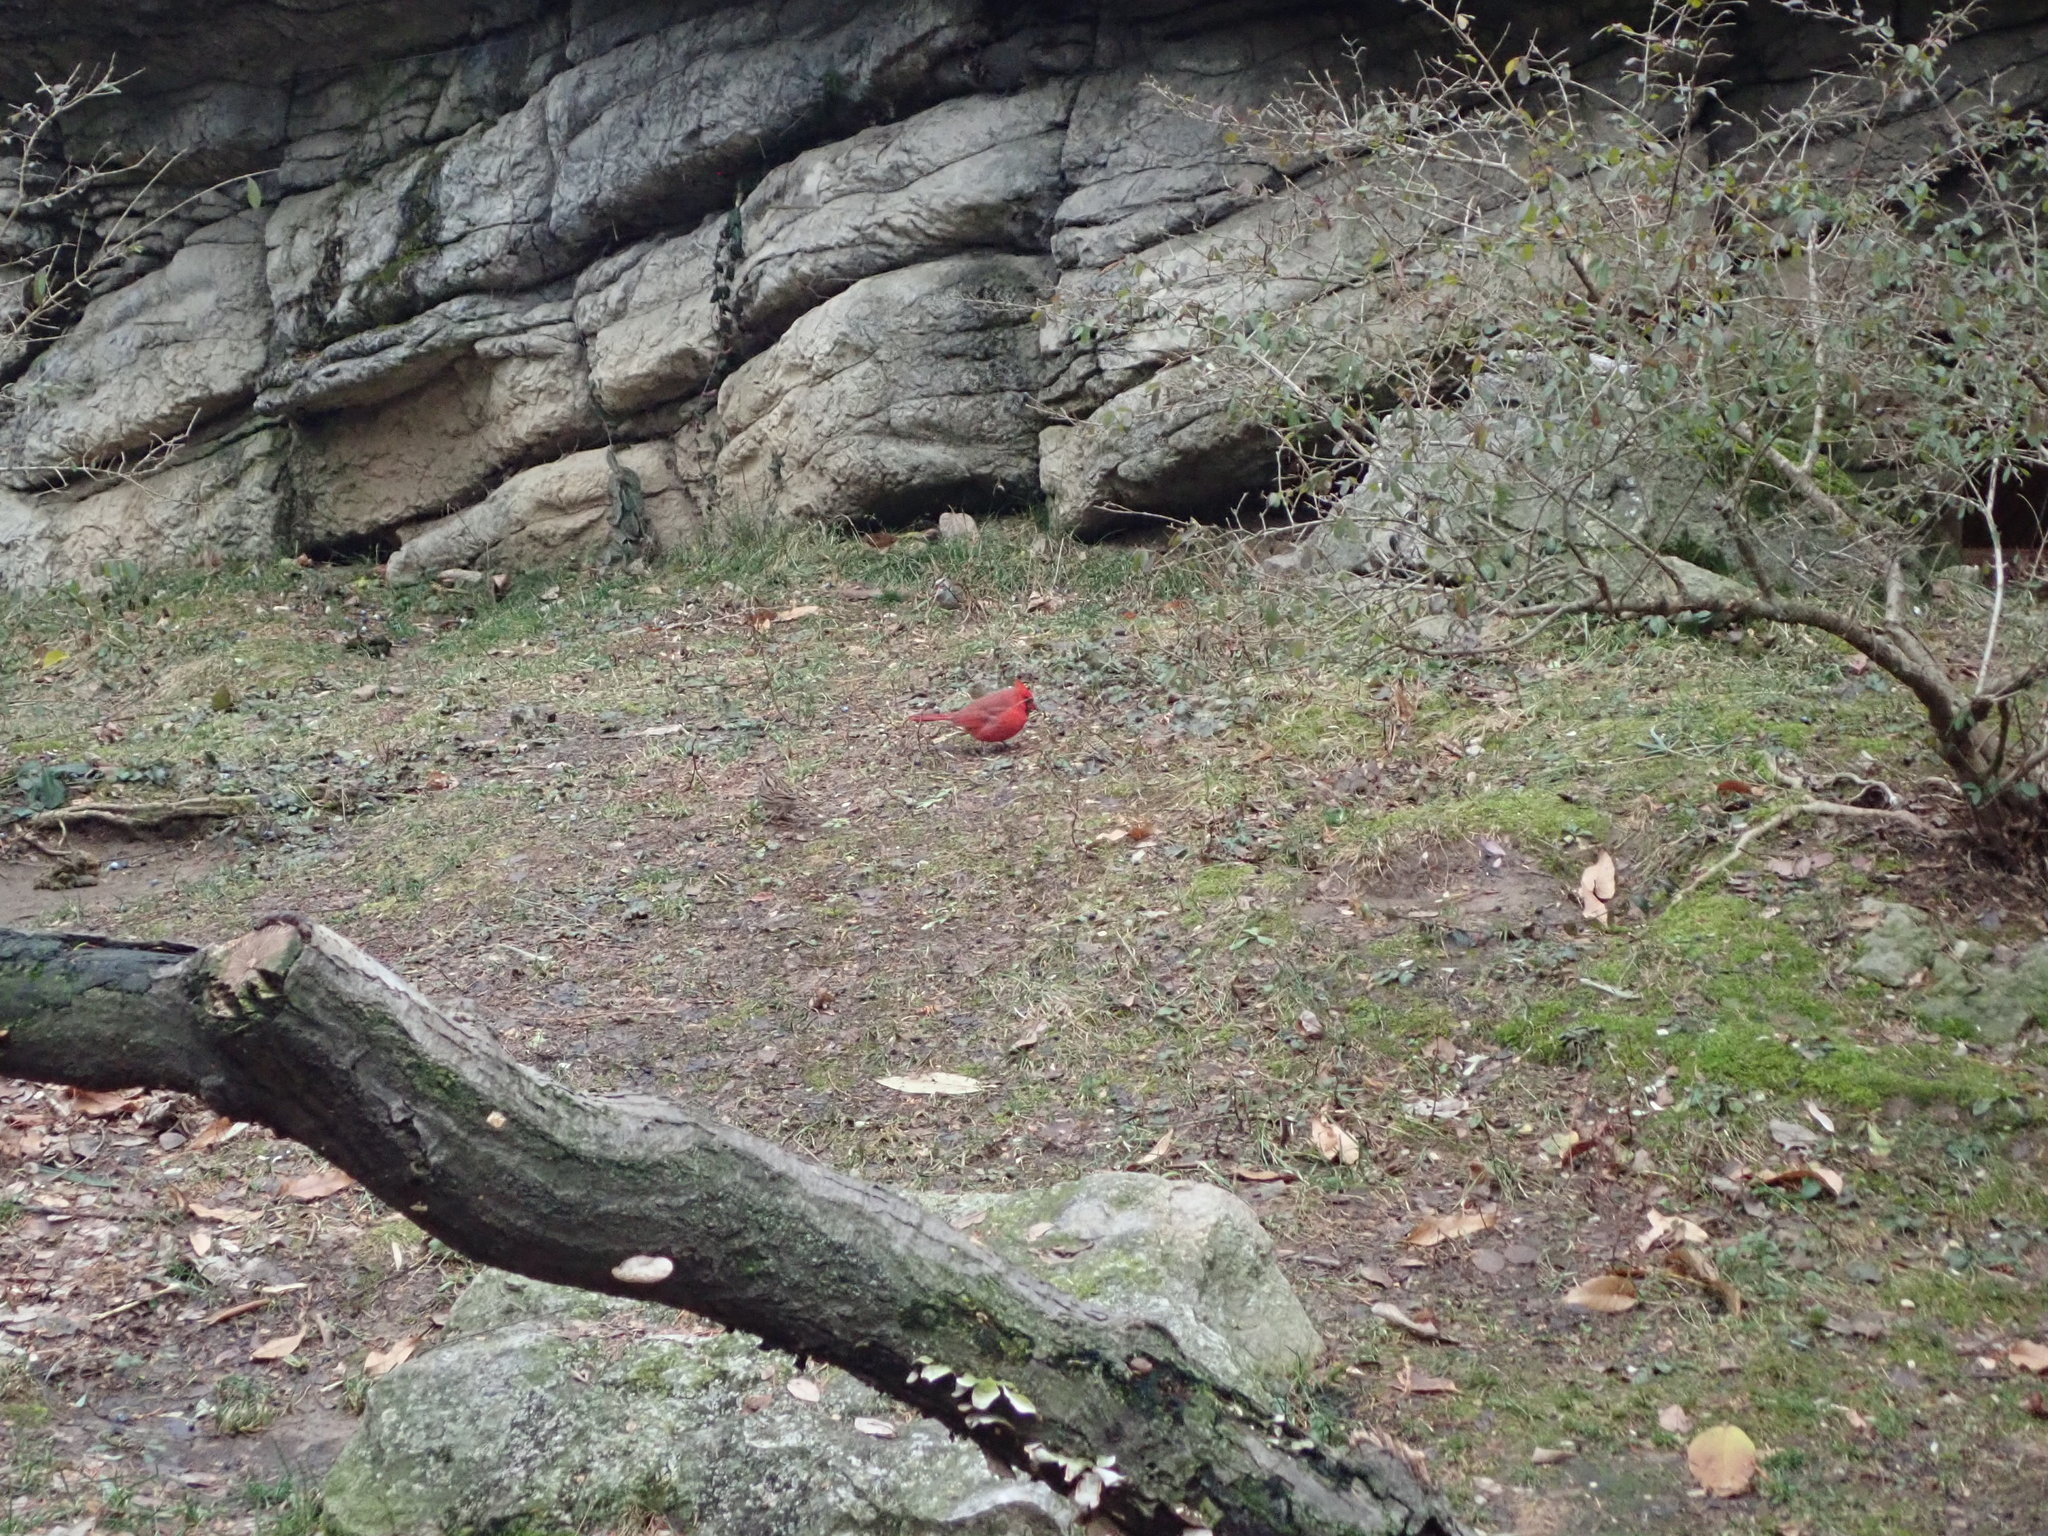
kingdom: Animalia
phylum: Chordata
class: Aves
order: Passeriformes
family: Cardinalidae
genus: Cardinalis
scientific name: Cardinalis cardinalis
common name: Northern cardinal
